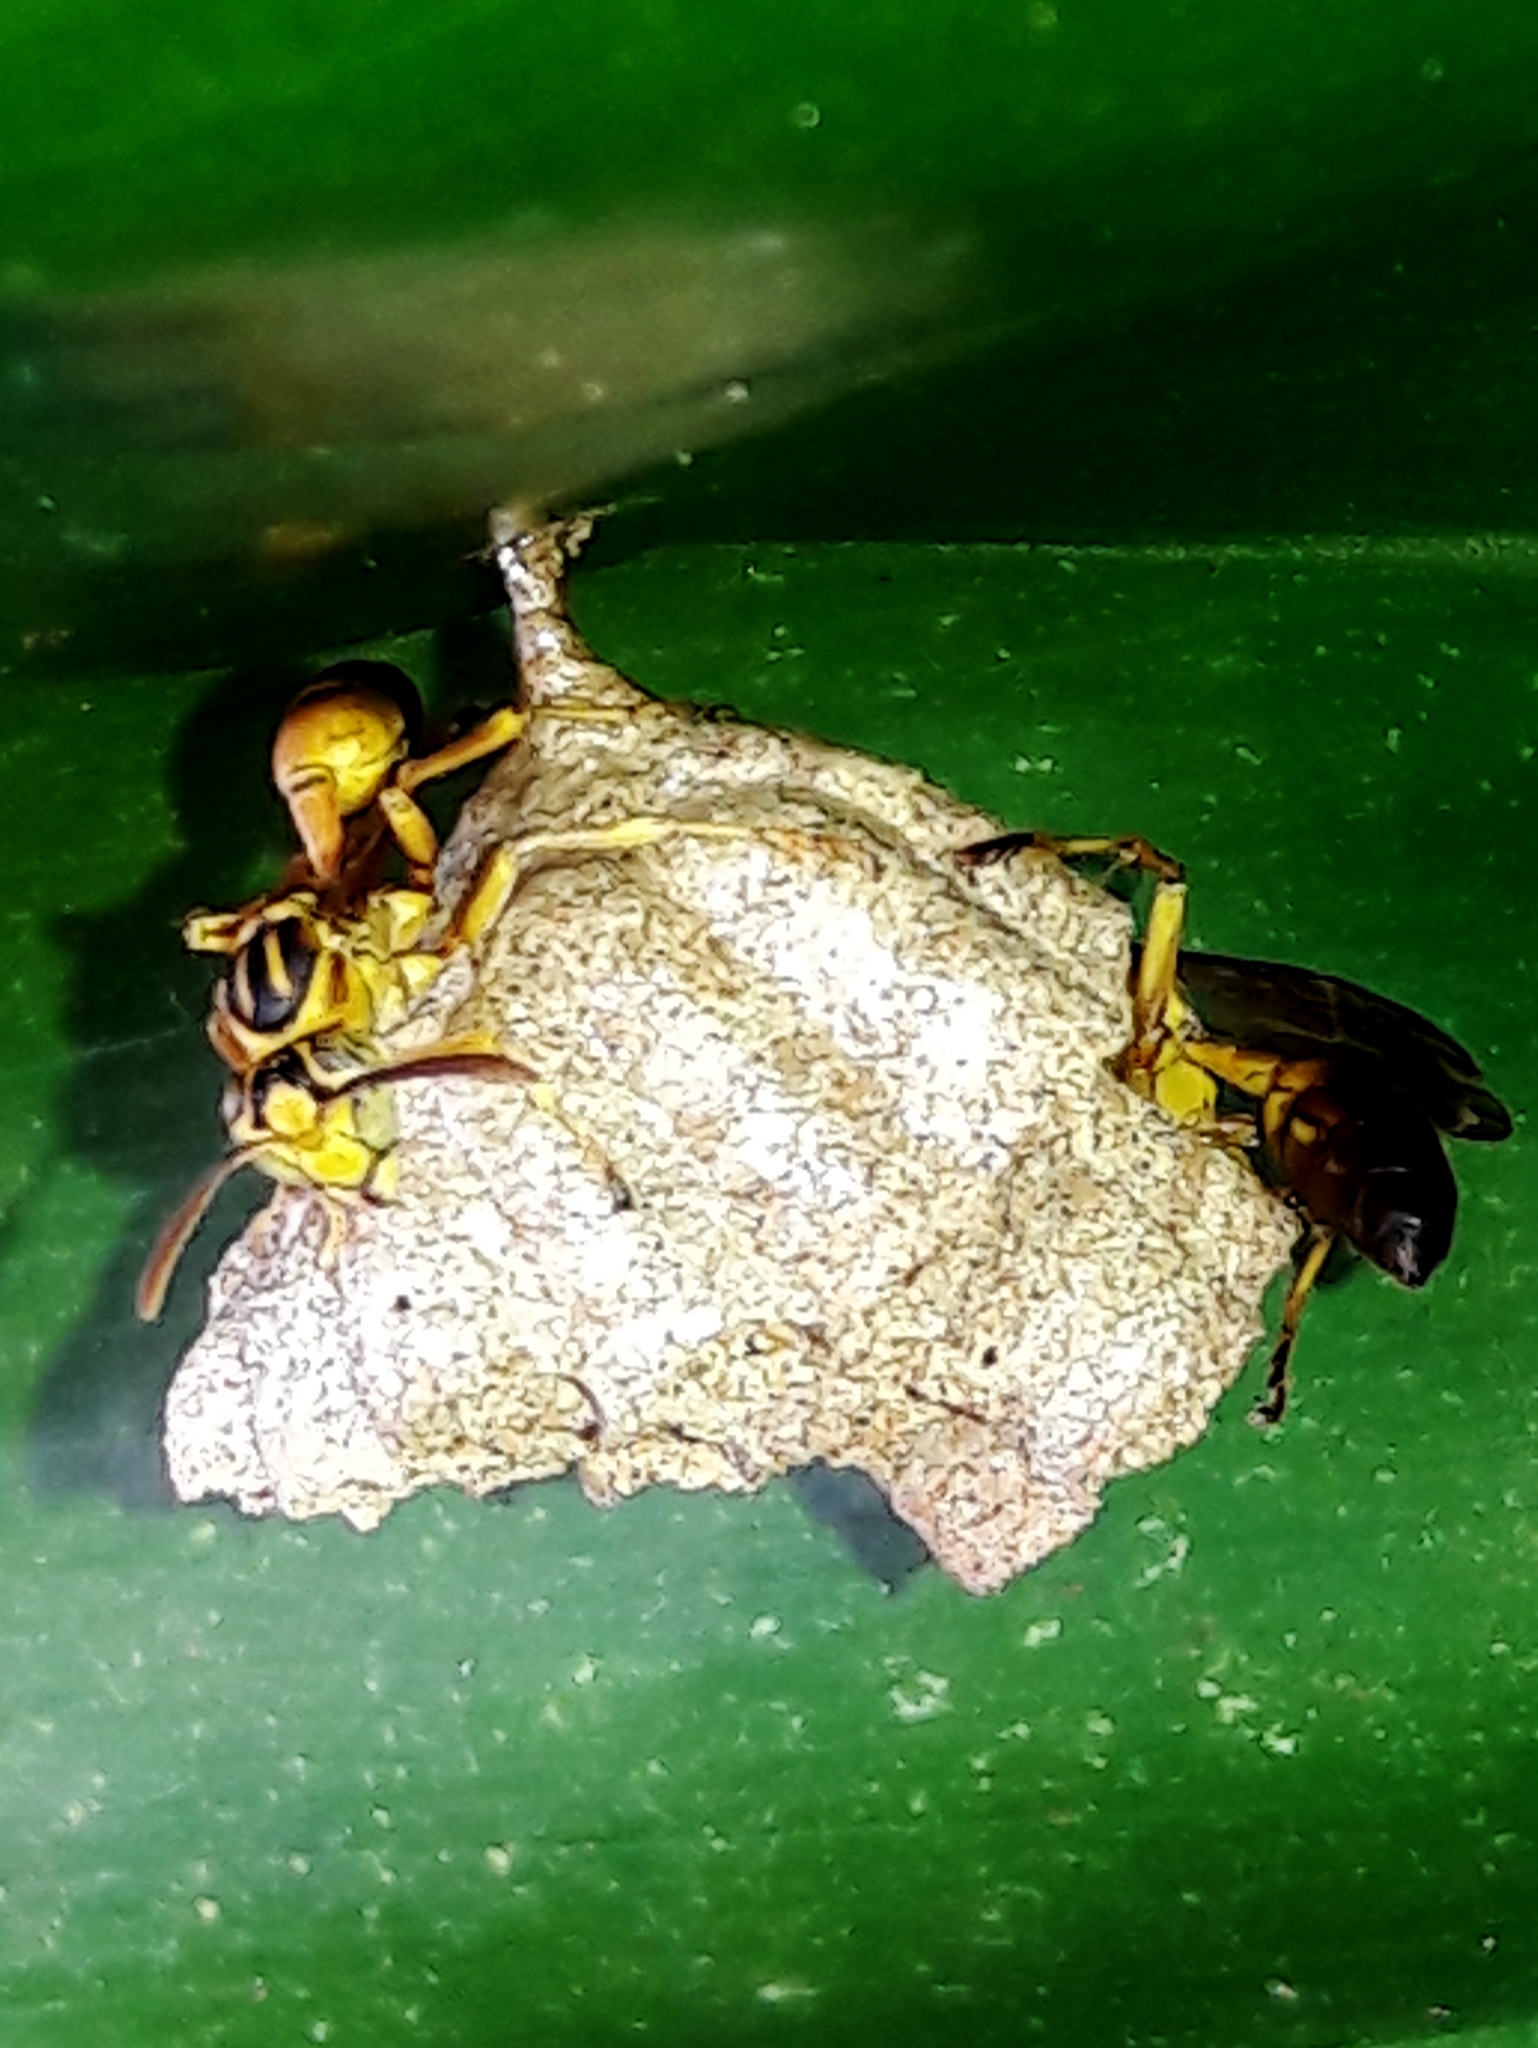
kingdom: Animalia
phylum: Arthropoda
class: Insecta
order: Hymenoptera
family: Vespidae
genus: Mischocyttarus
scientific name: Mischocyttarus cerberus
